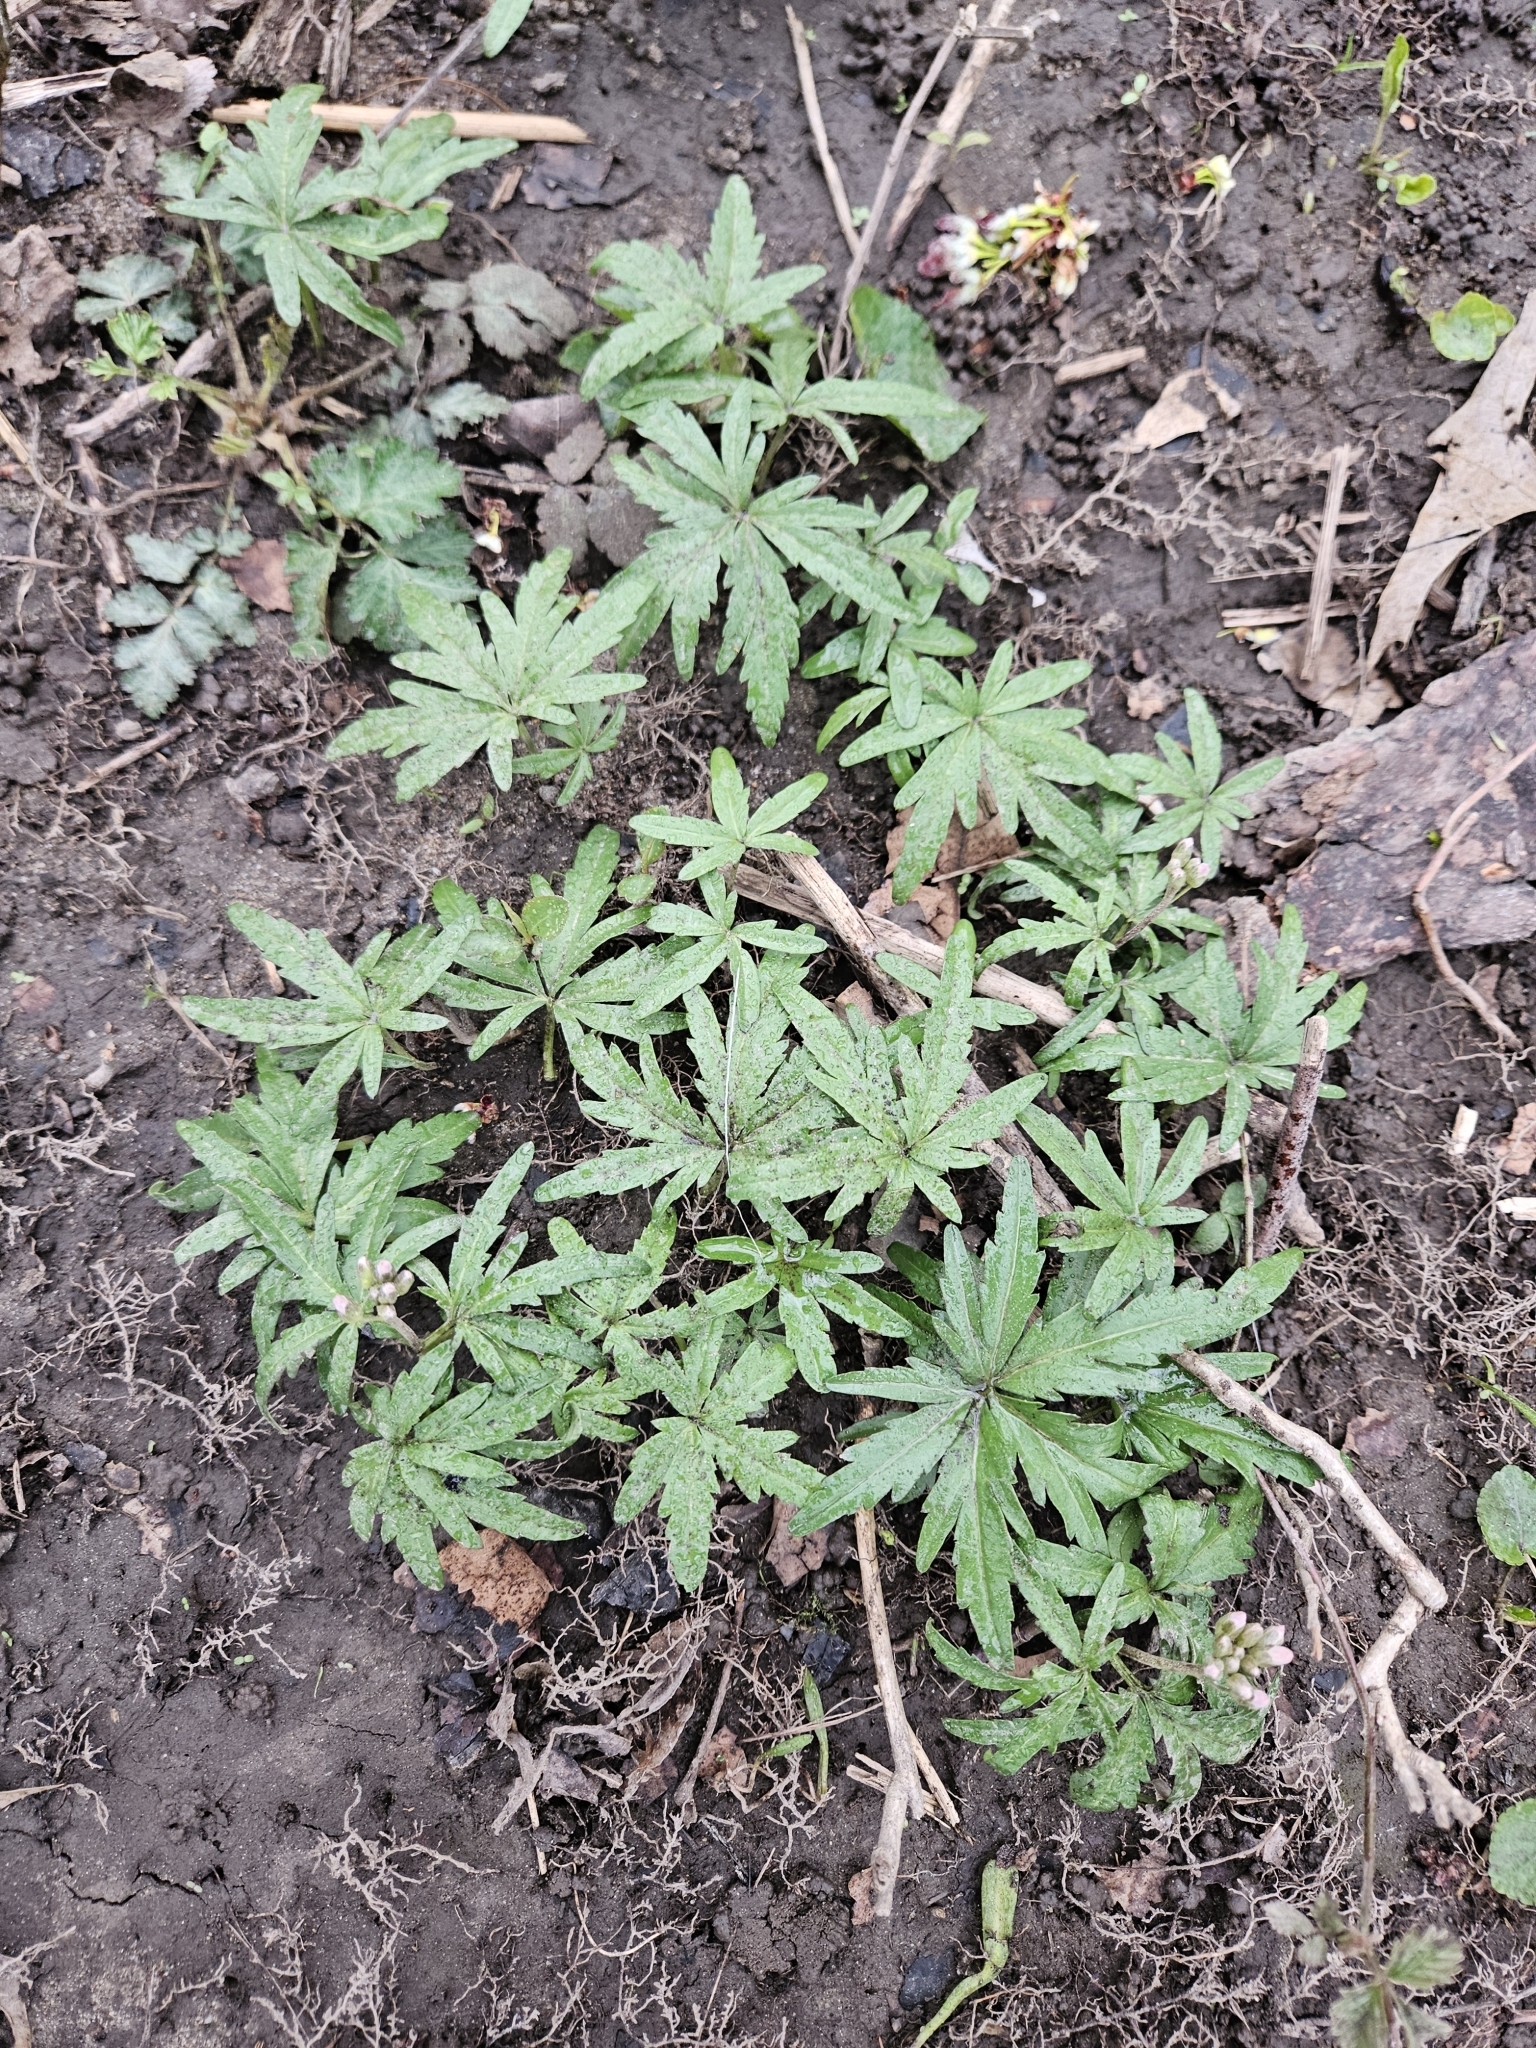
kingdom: Plantae
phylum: Tracheophyta
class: Magnoliopsida
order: Brassicales
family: Brassicaceae
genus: Cardamine
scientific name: Cardamine concatenata
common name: Cut-leaf toothcup
